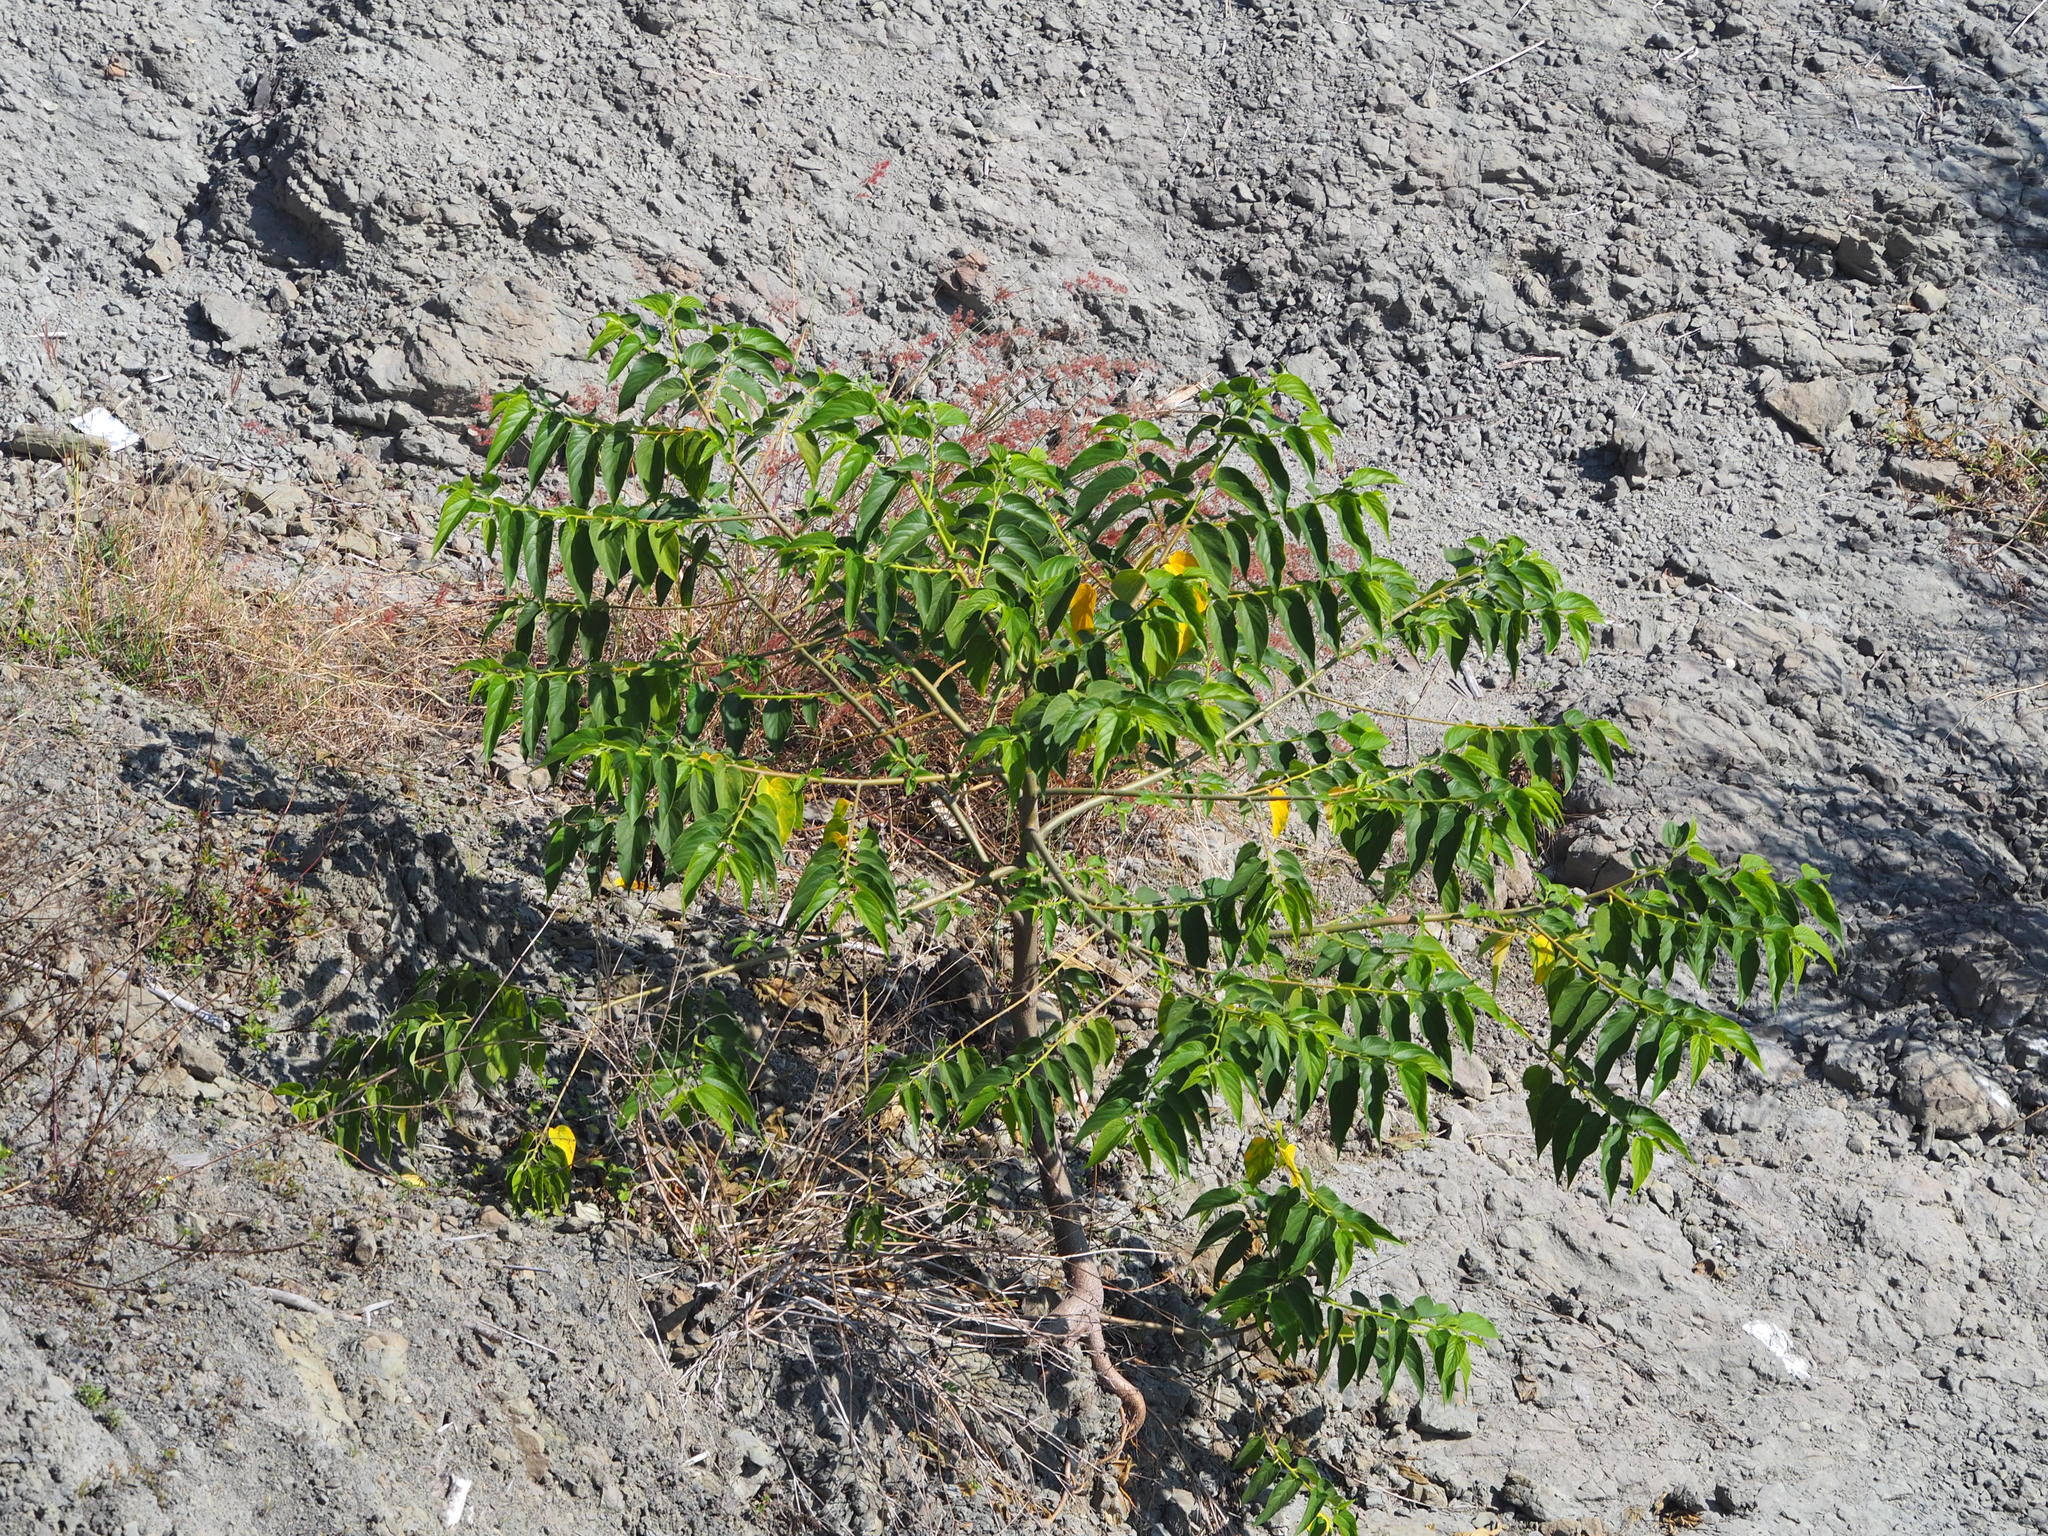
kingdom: Plantae
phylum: Tracheophyta
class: Magnoliopsida
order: Rosales
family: Cannabaceae
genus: Trema
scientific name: Trema orientale
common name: Indian charcoal tree
